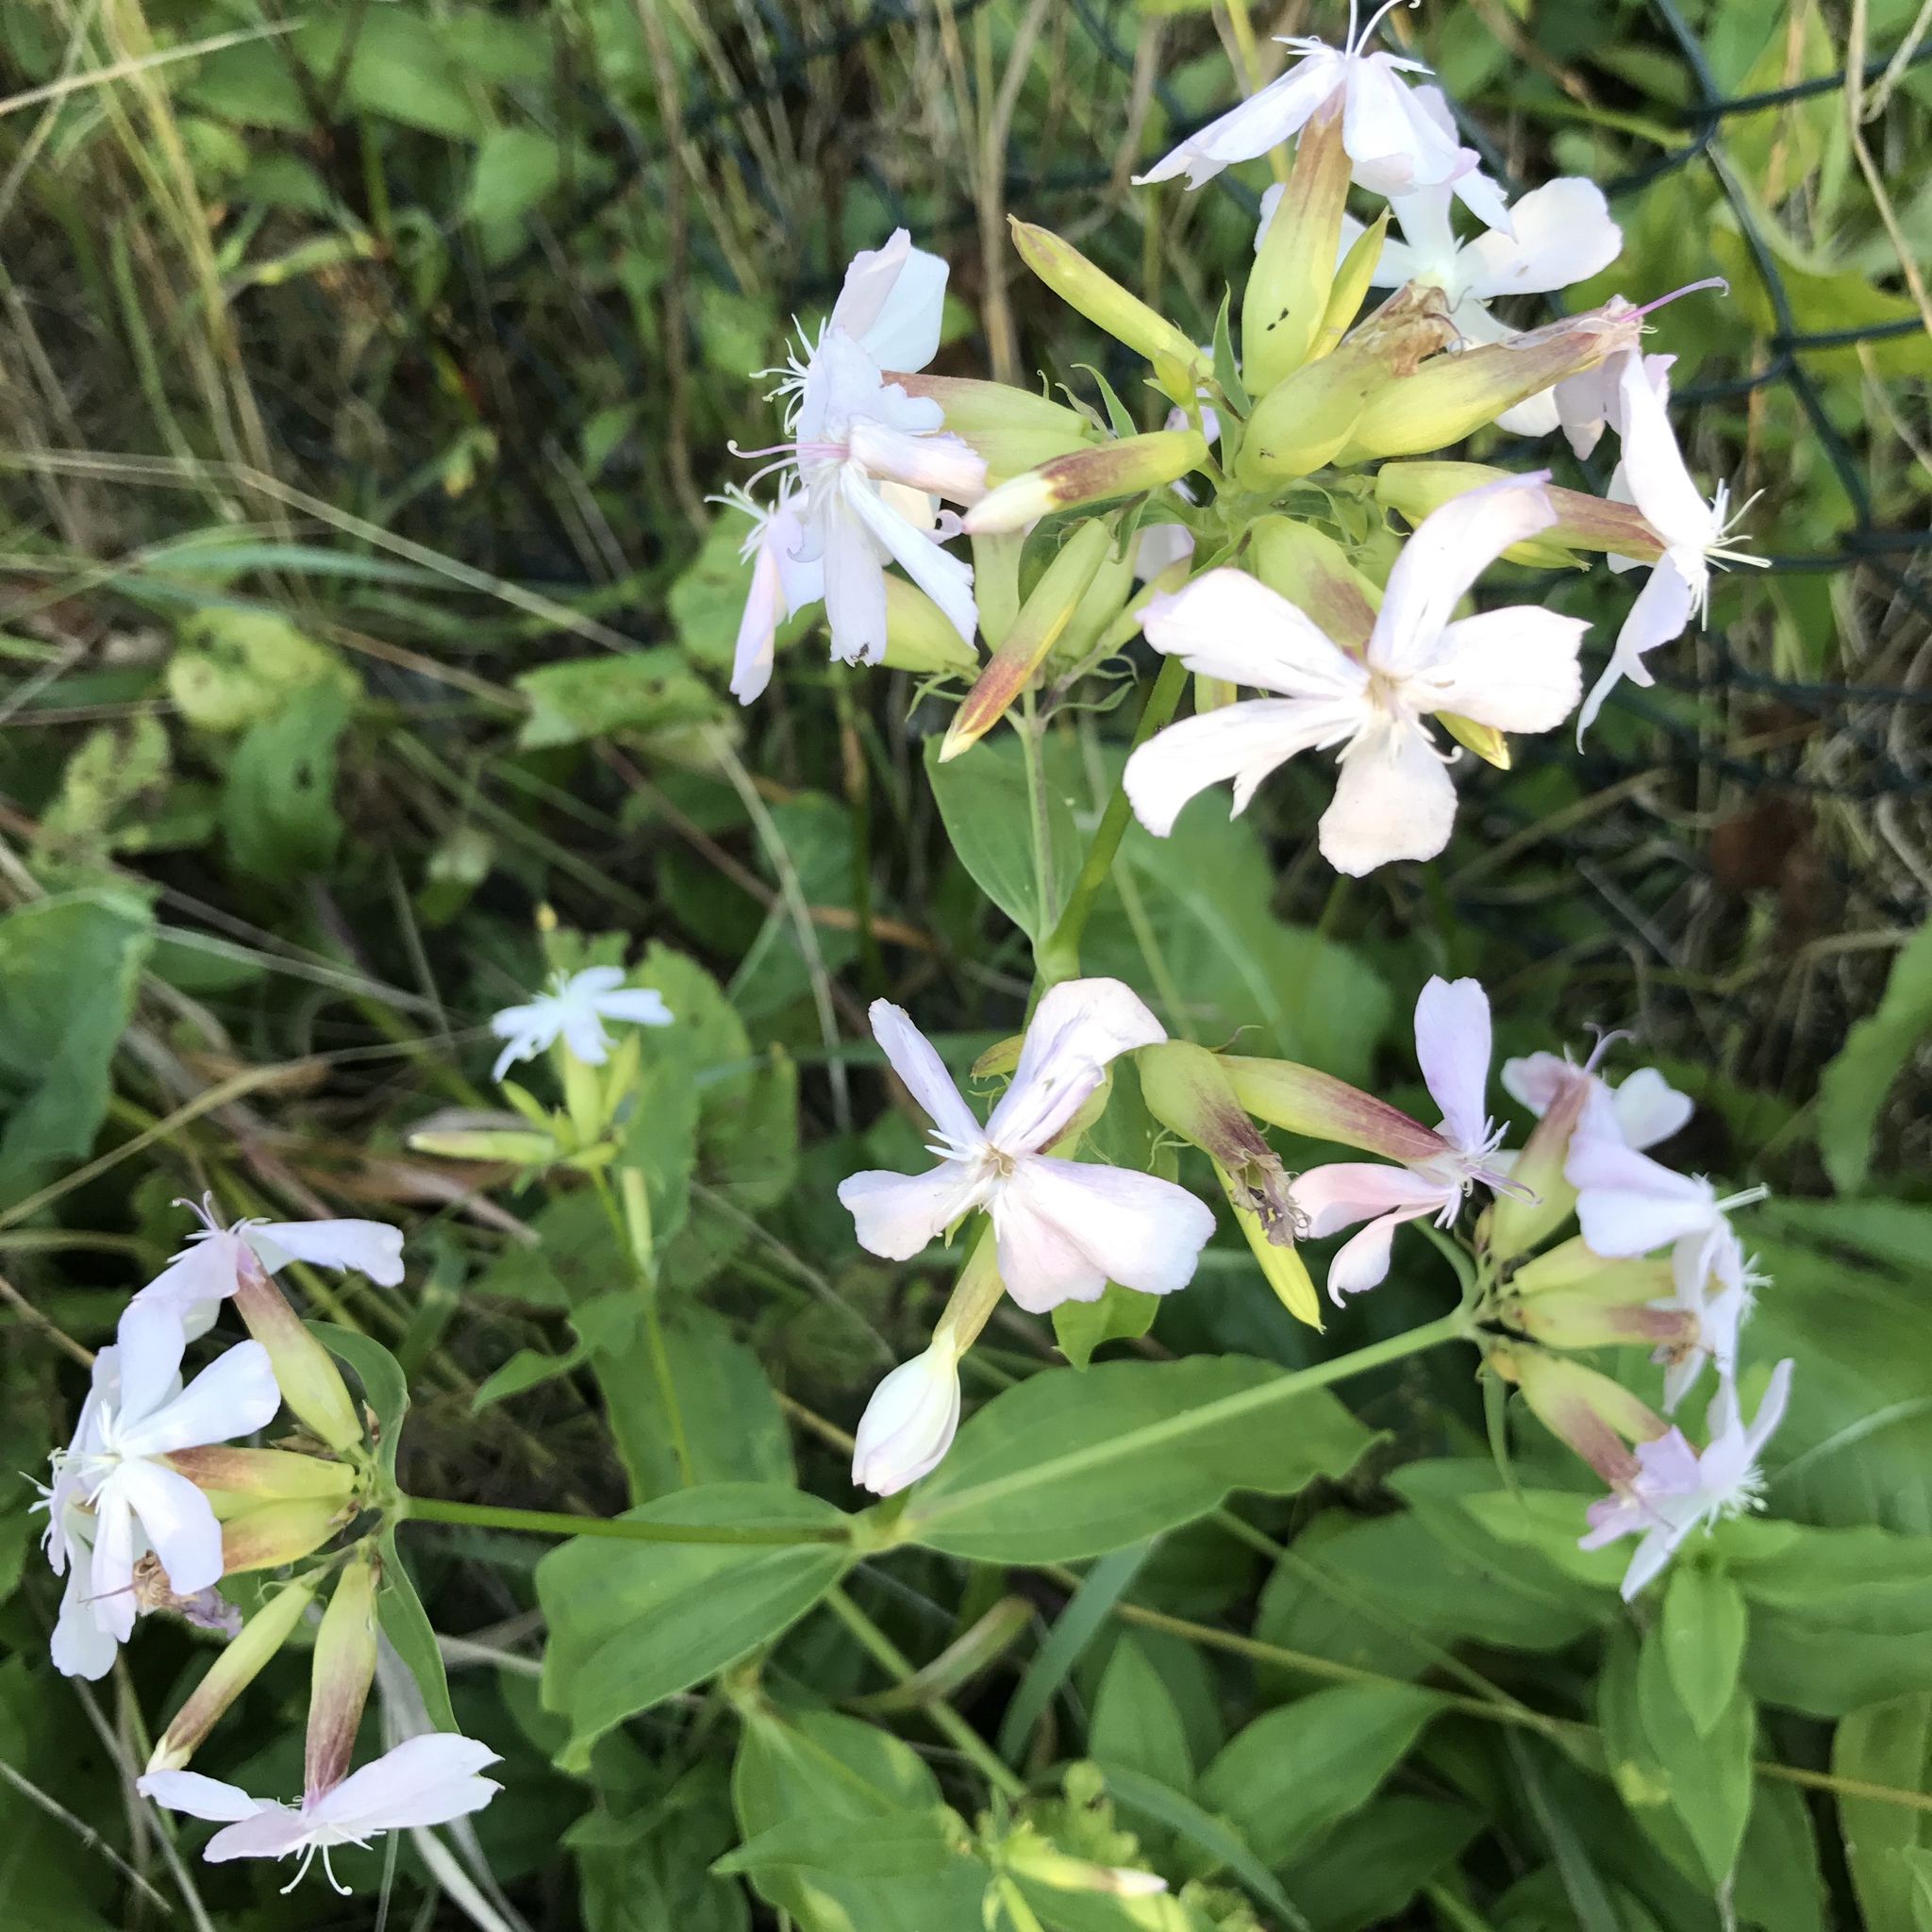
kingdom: Plantae
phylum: Tracheophyta
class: Magnoliopsida
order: Caryophyllales
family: Caryophyllaceae
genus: Saponaria
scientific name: Saponaria officinalis
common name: Soapwort
